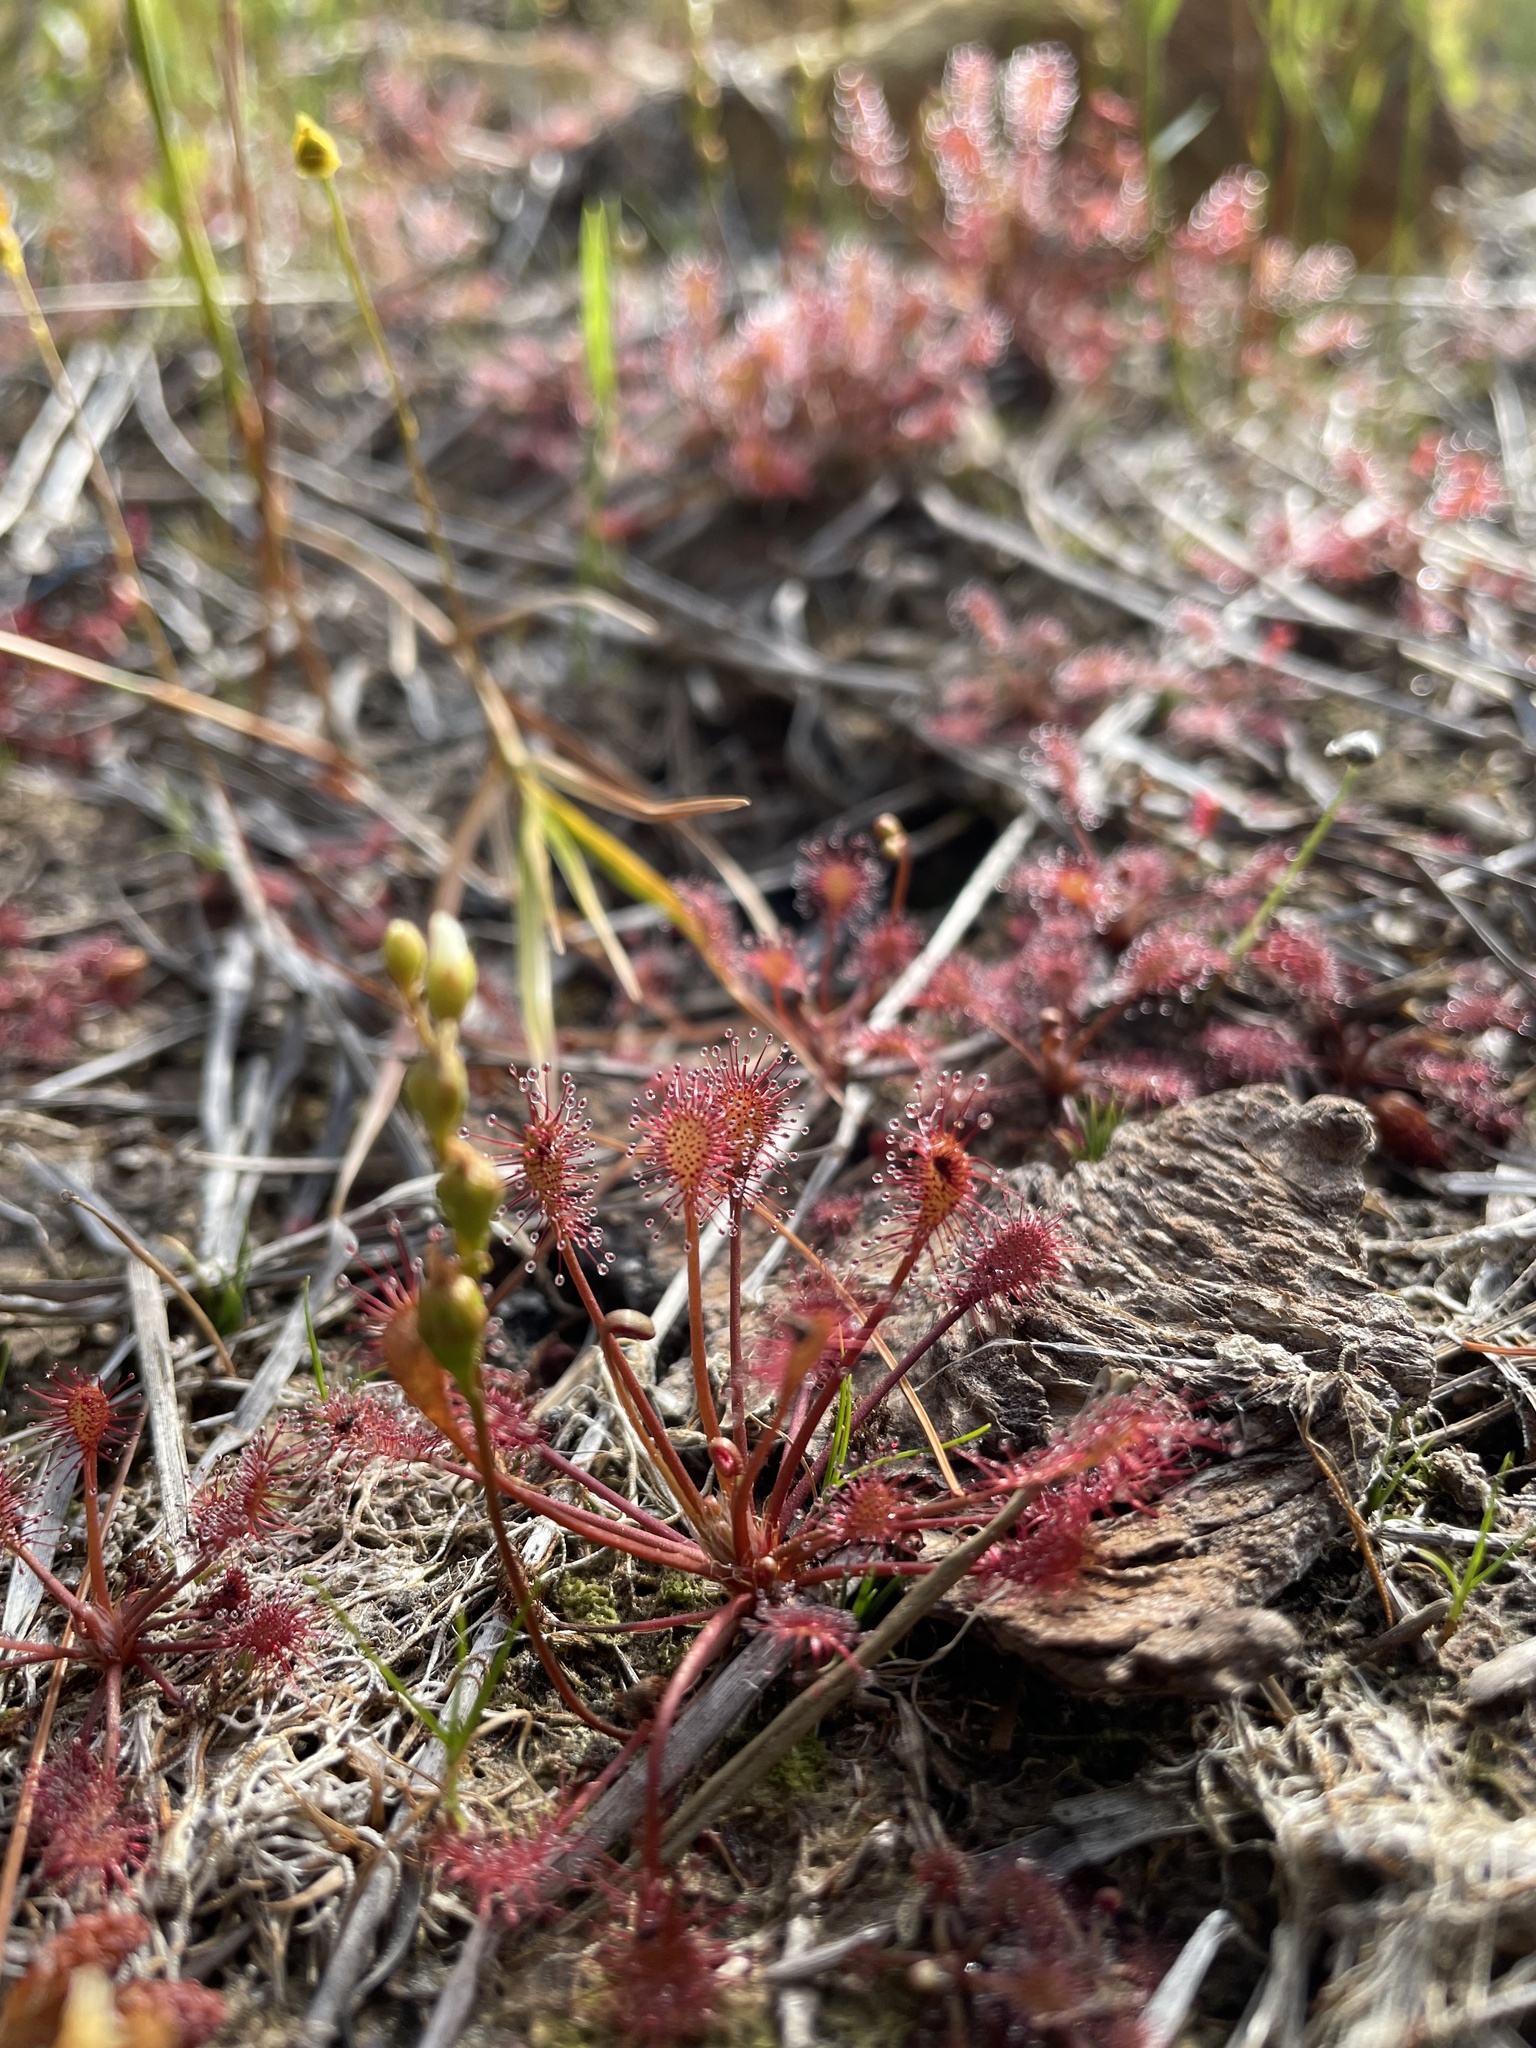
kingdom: Plantae
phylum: Tracheophyta
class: Magnoliopsida
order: Caryophyllales
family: Droseraceae
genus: Drosera
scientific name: Drosera intermedia
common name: Oblong-leaved sundew
